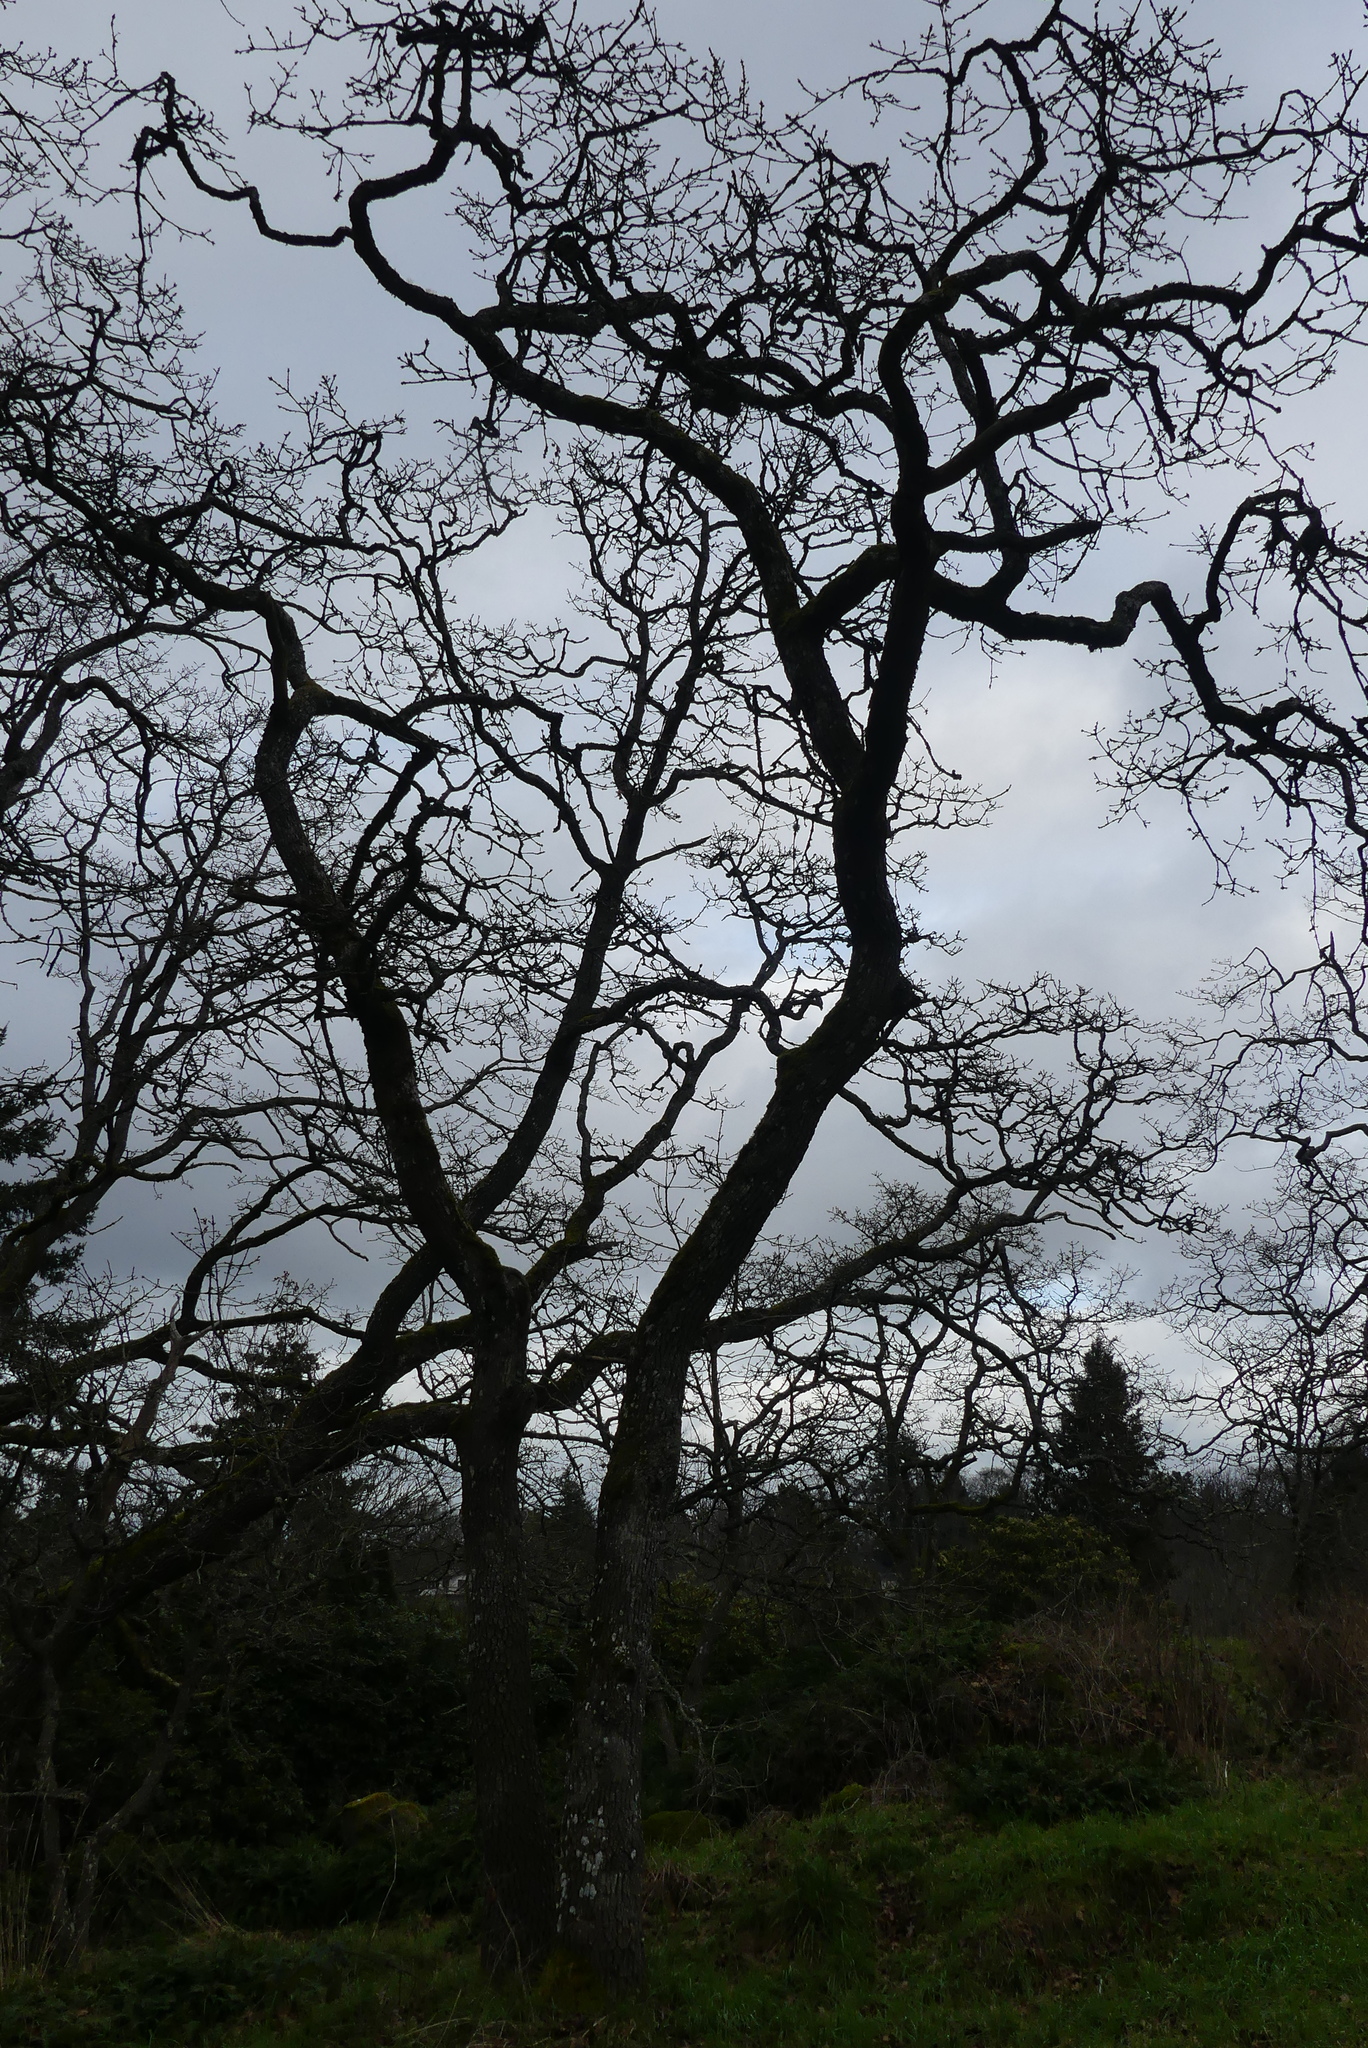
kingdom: Plantae
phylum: Tracheophyta
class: Magnoliopsida
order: Fagales
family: Fagaceae
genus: Quercus
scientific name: Quercus garryana
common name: Garry oak
